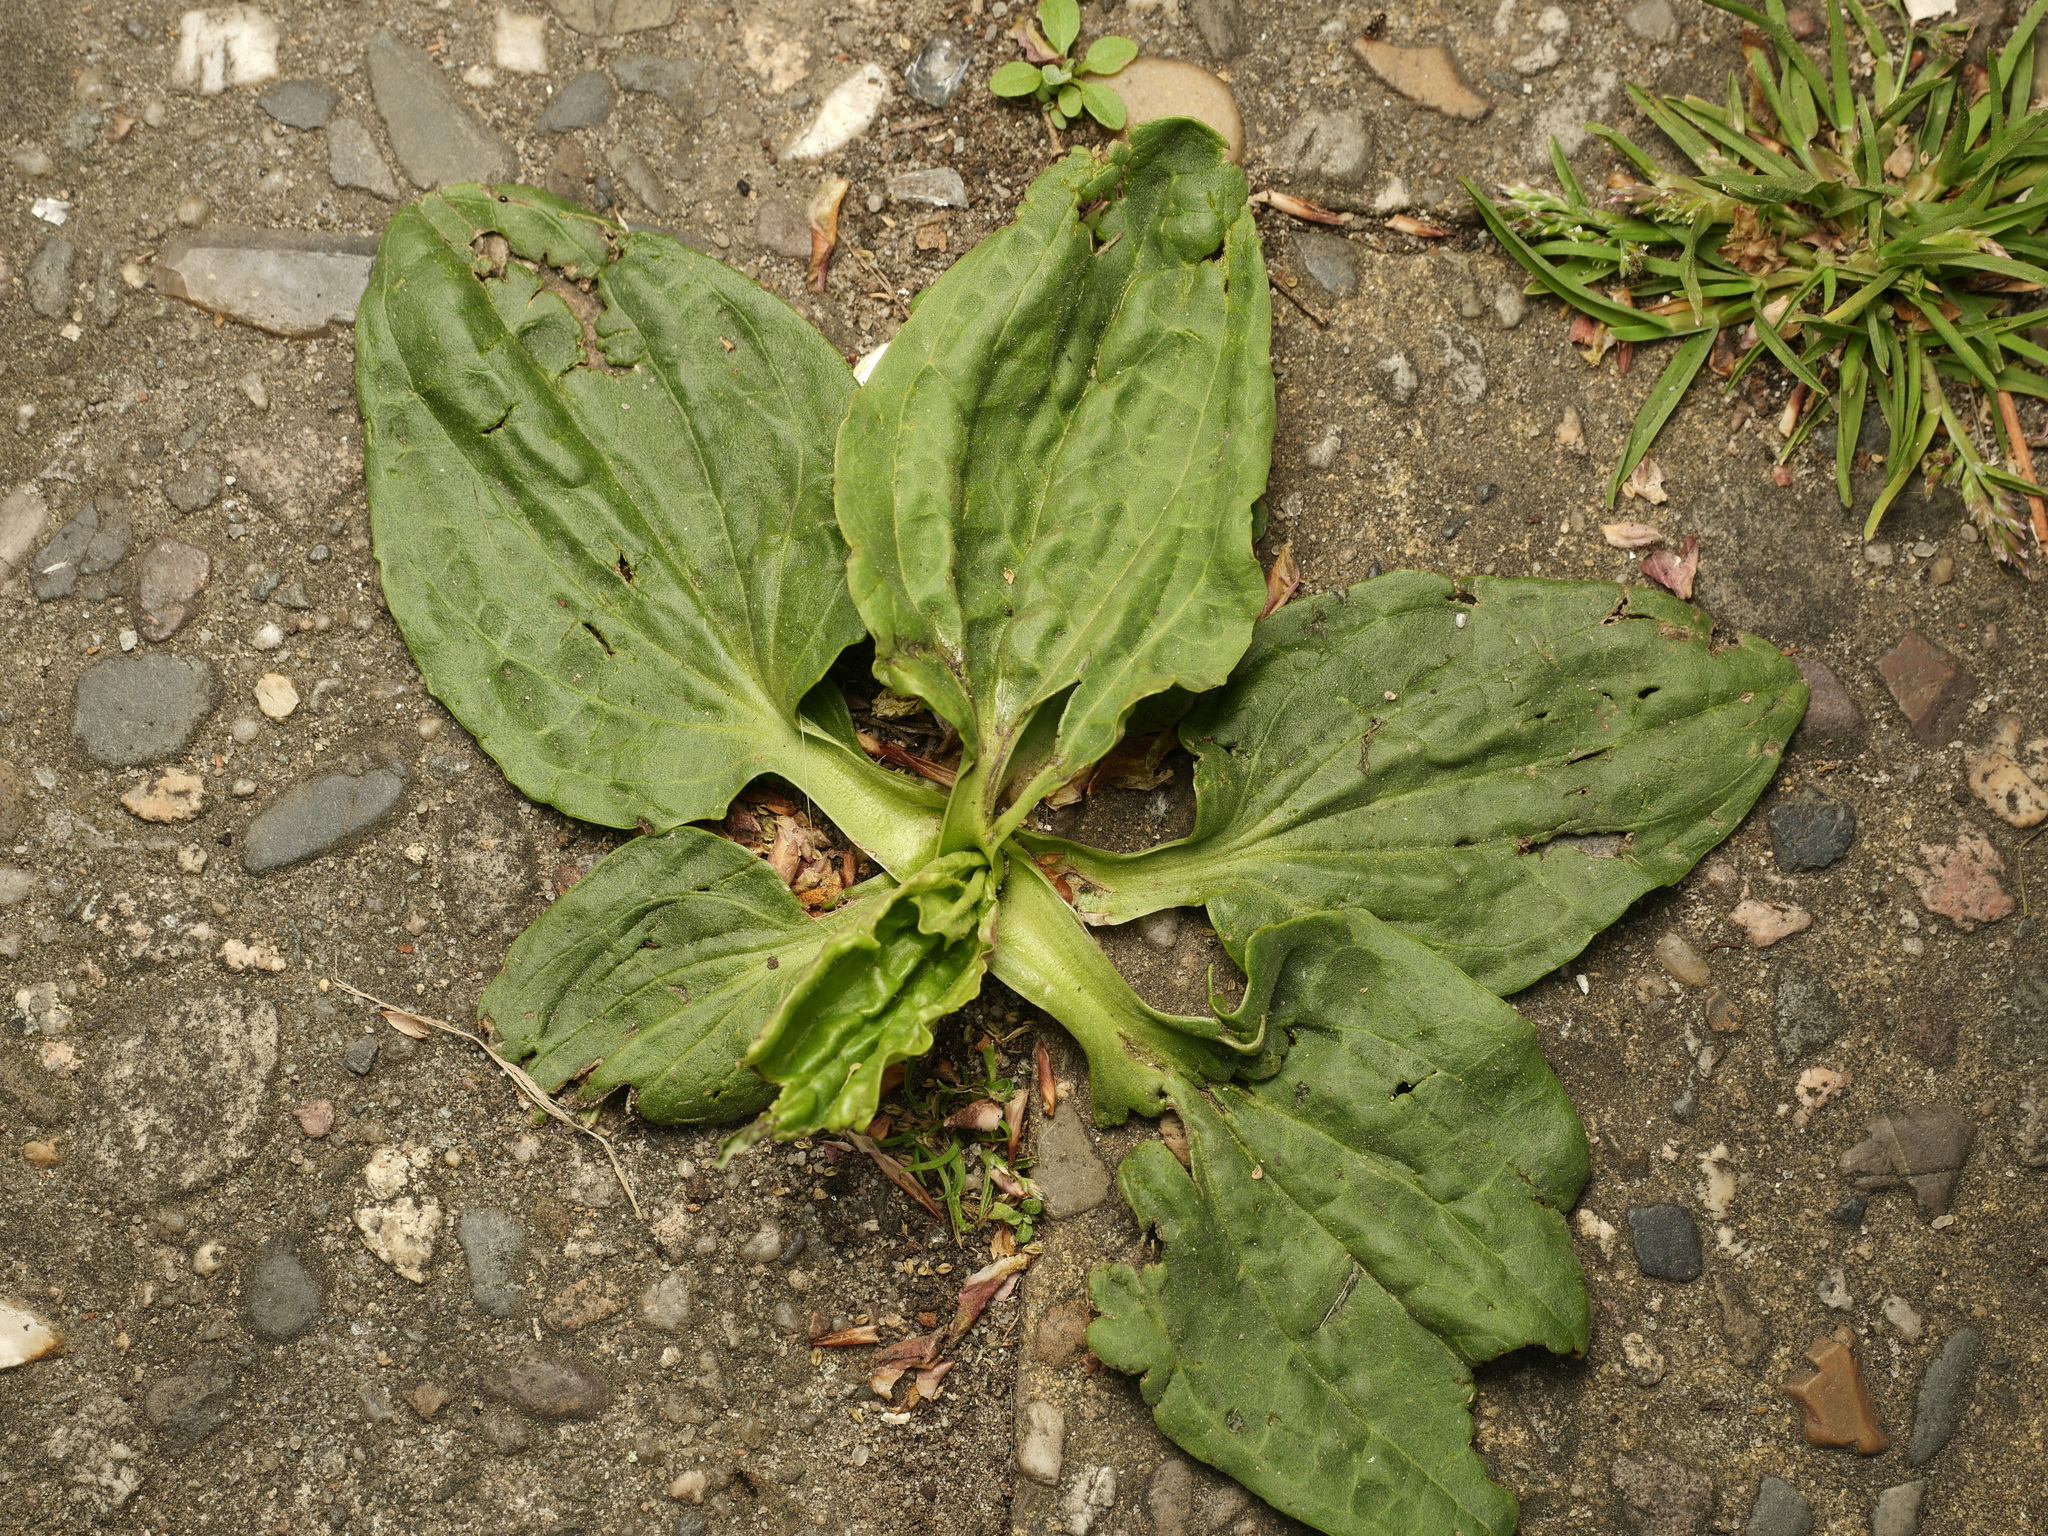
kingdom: Plantae
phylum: Tracheophyta
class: Magnoliopsida
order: Lamiales
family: Plantaginaceae
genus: Plantago
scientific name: Plantago major
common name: Common plantain
